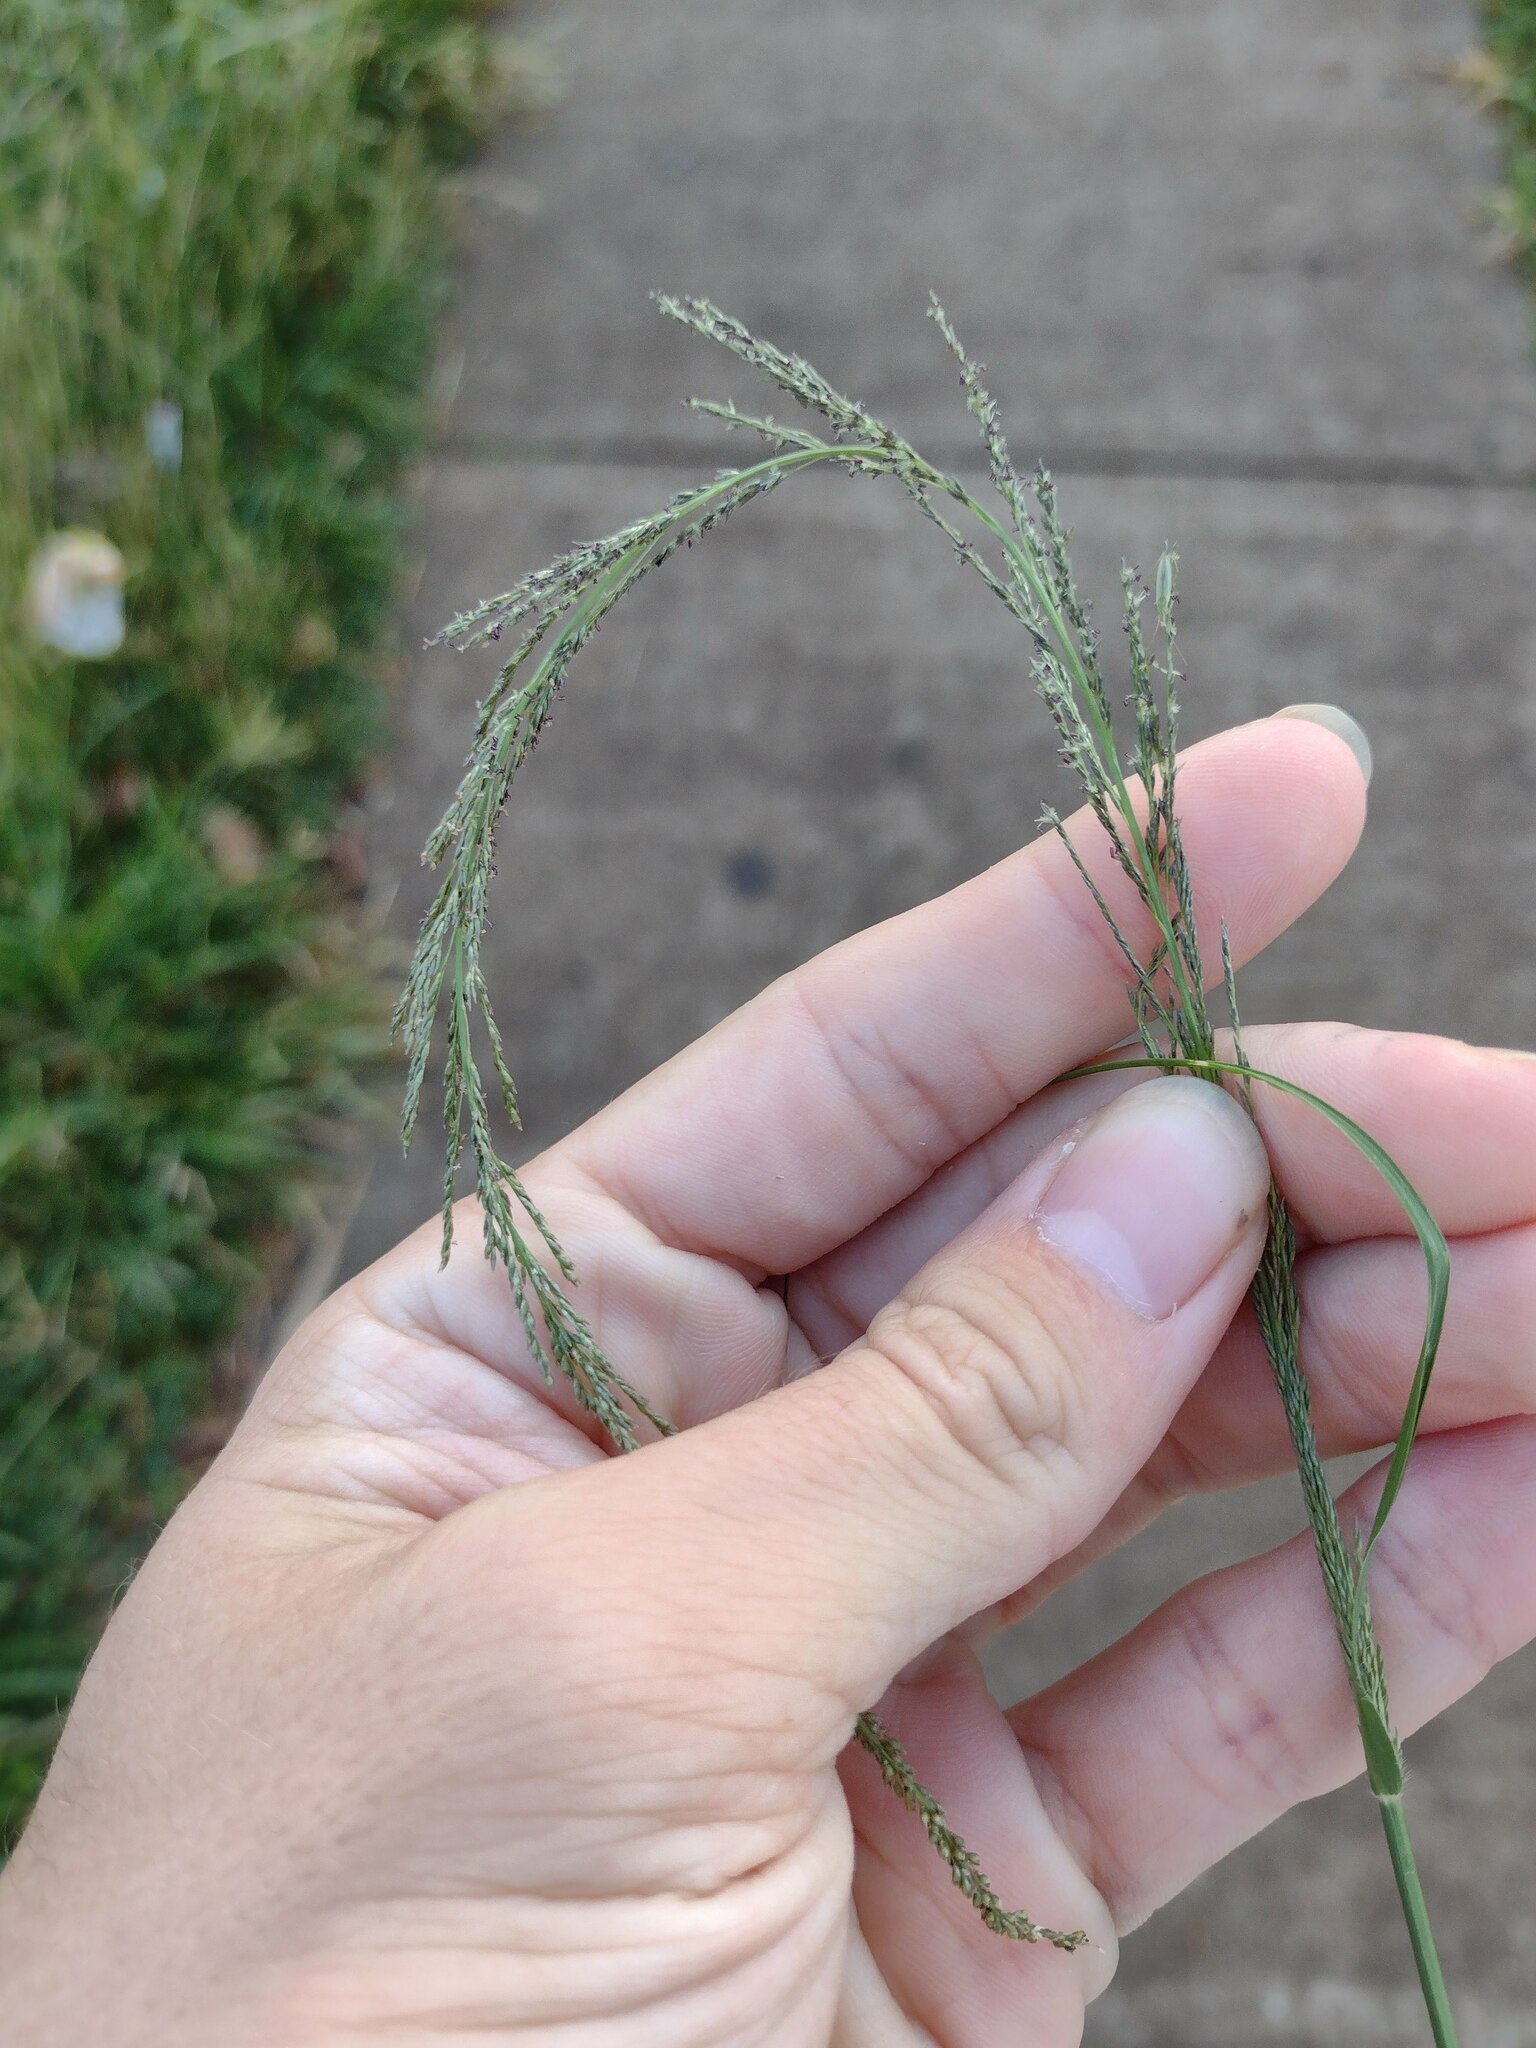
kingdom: Plantae
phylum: Tracheophyta
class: Liliopsida
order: Poales
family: Poaceae
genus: Sporobolus
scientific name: Sporobolus elongatus
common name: Rat tail grass
